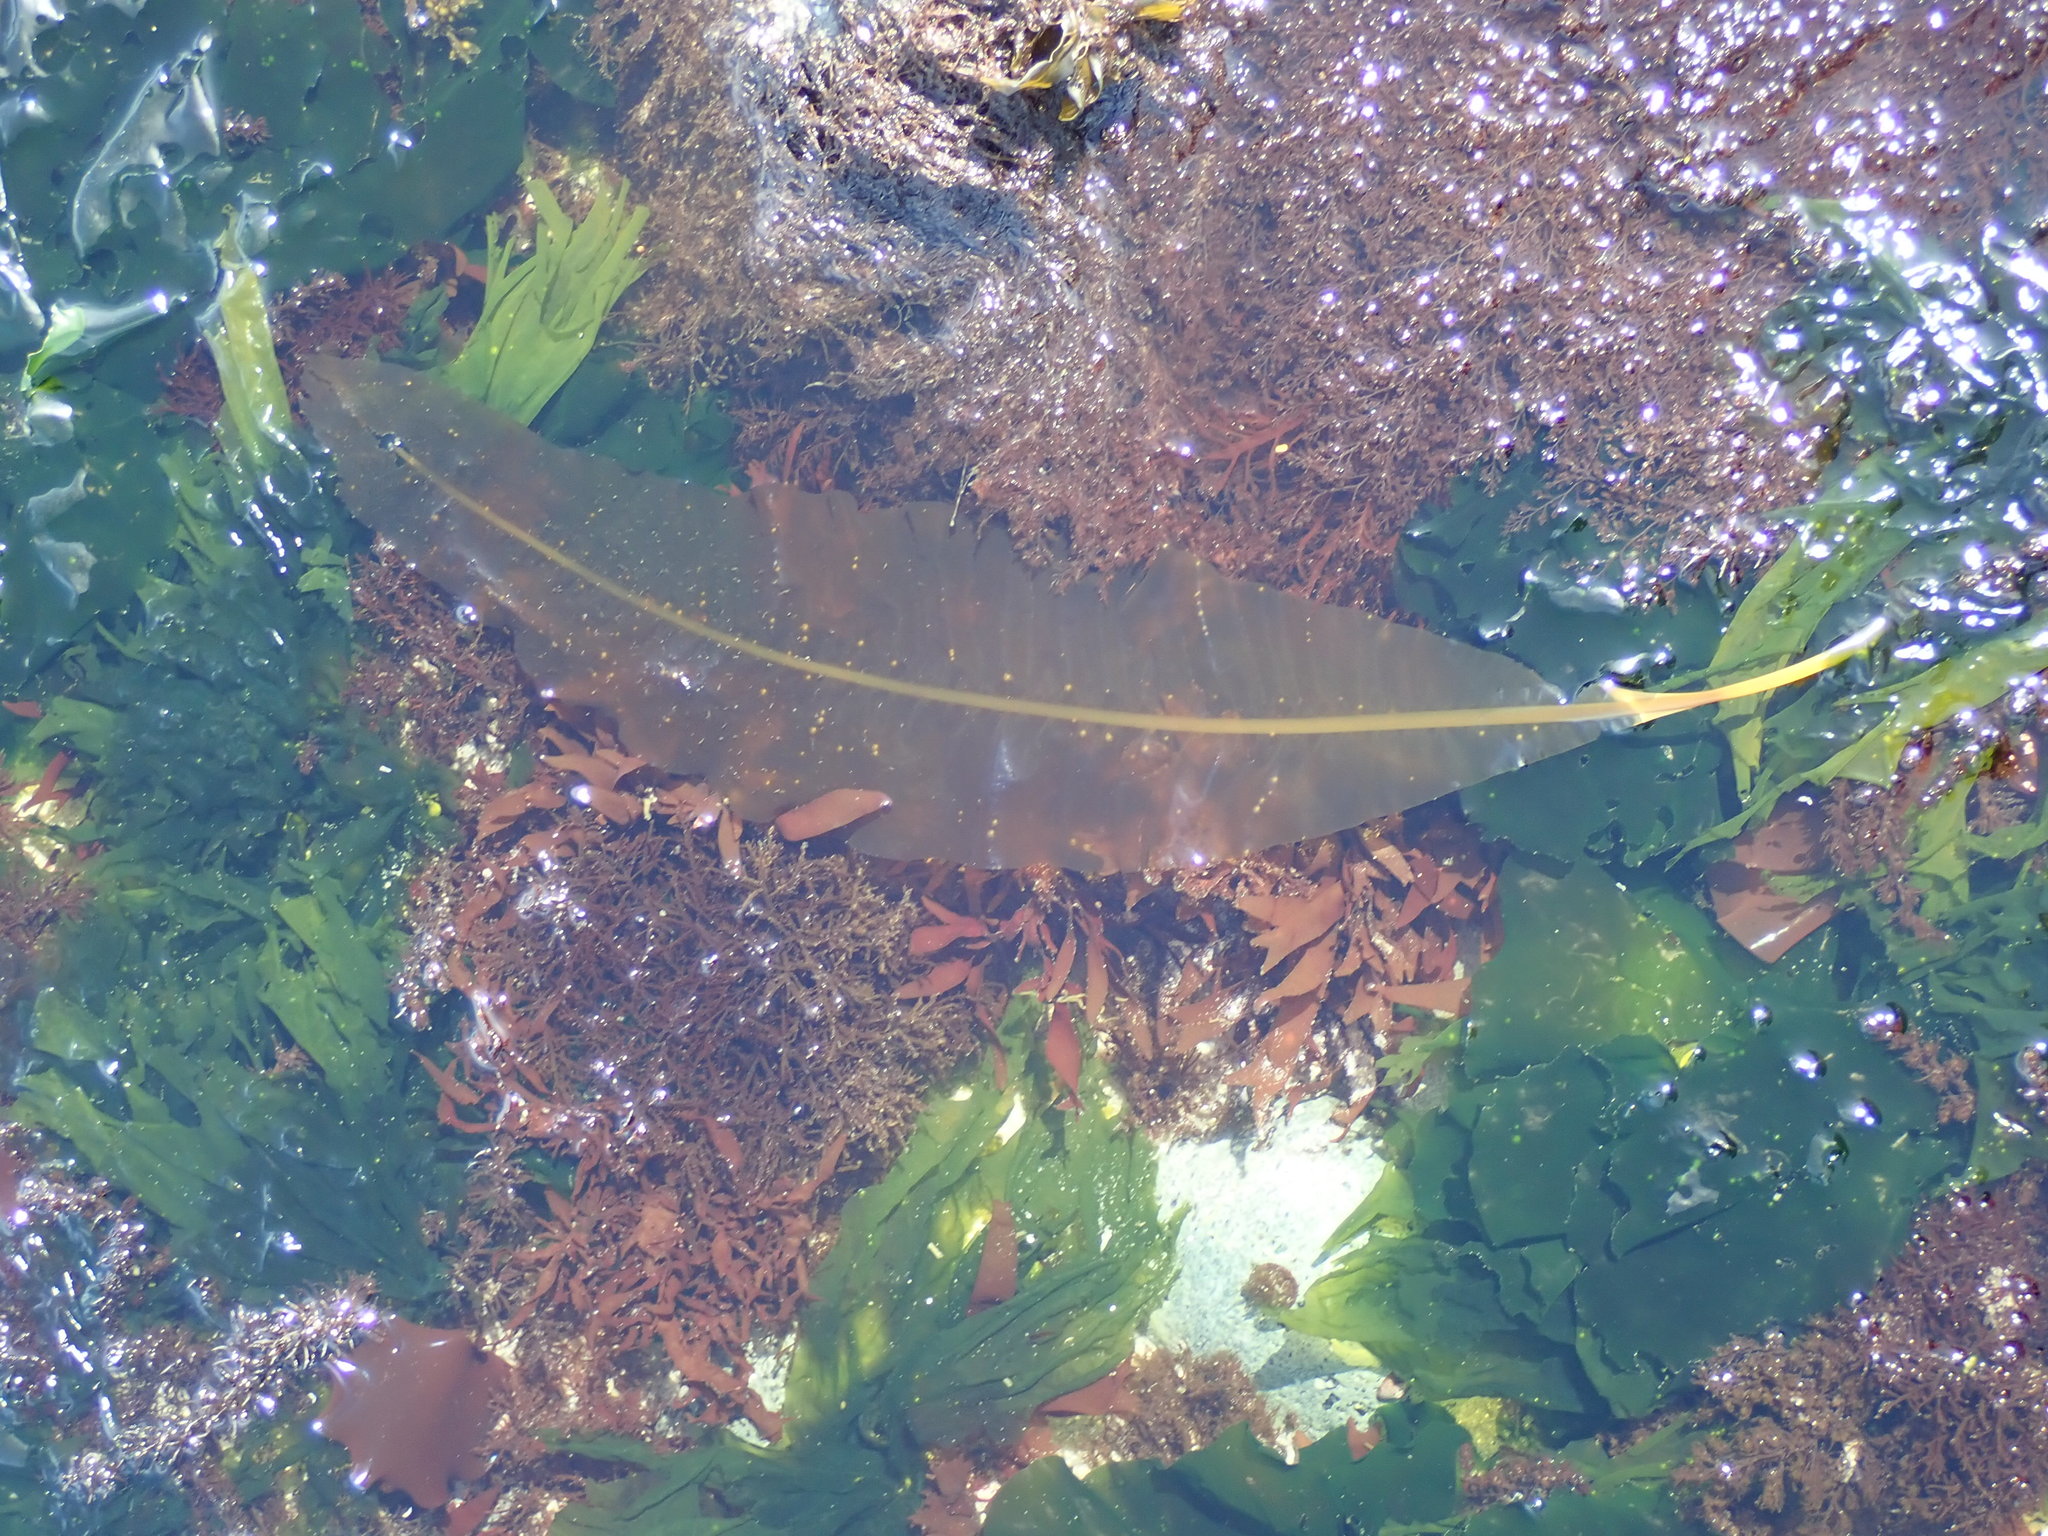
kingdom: Chromista
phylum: Ochrophyta
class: Phaeophyceae
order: Laminariales
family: Alariaceae
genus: Alaria
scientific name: Alaria marginata
